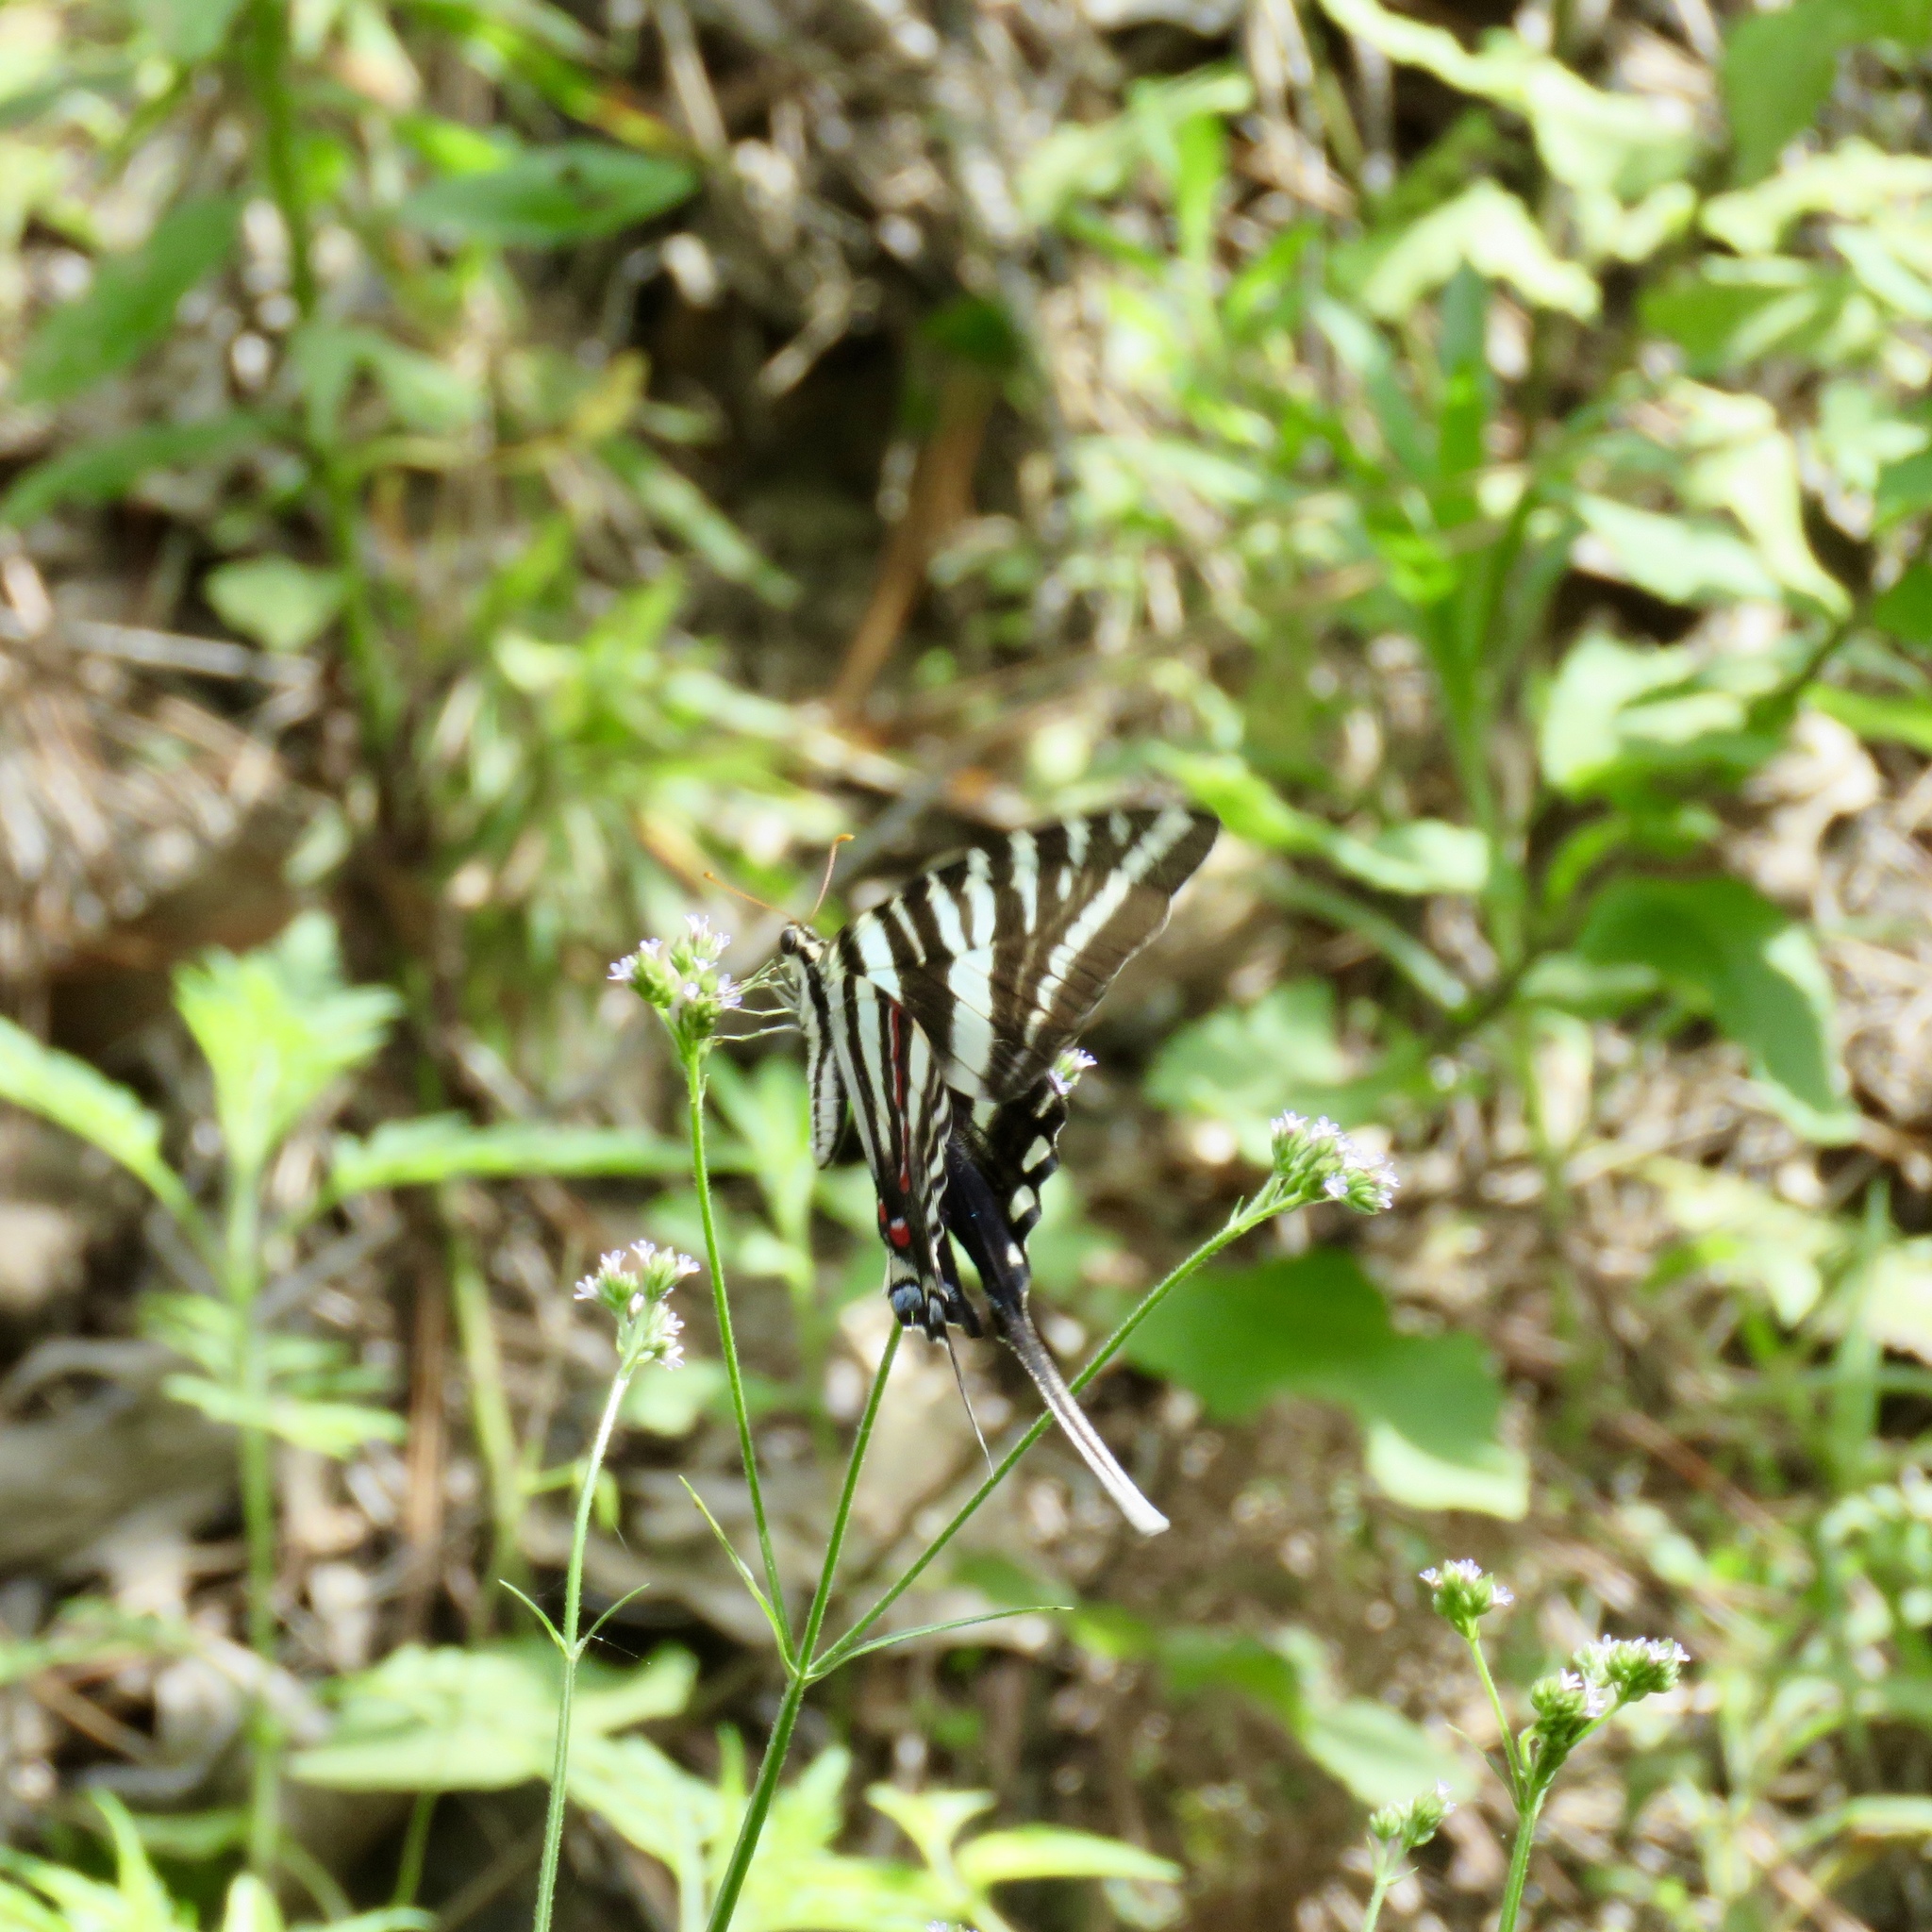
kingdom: Animalia
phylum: Arthropoda
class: Insecta
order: Lepidoptera
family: Papilionidae
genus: Protographium
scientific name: Protographium marcellus
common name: Zebra swallowtail
